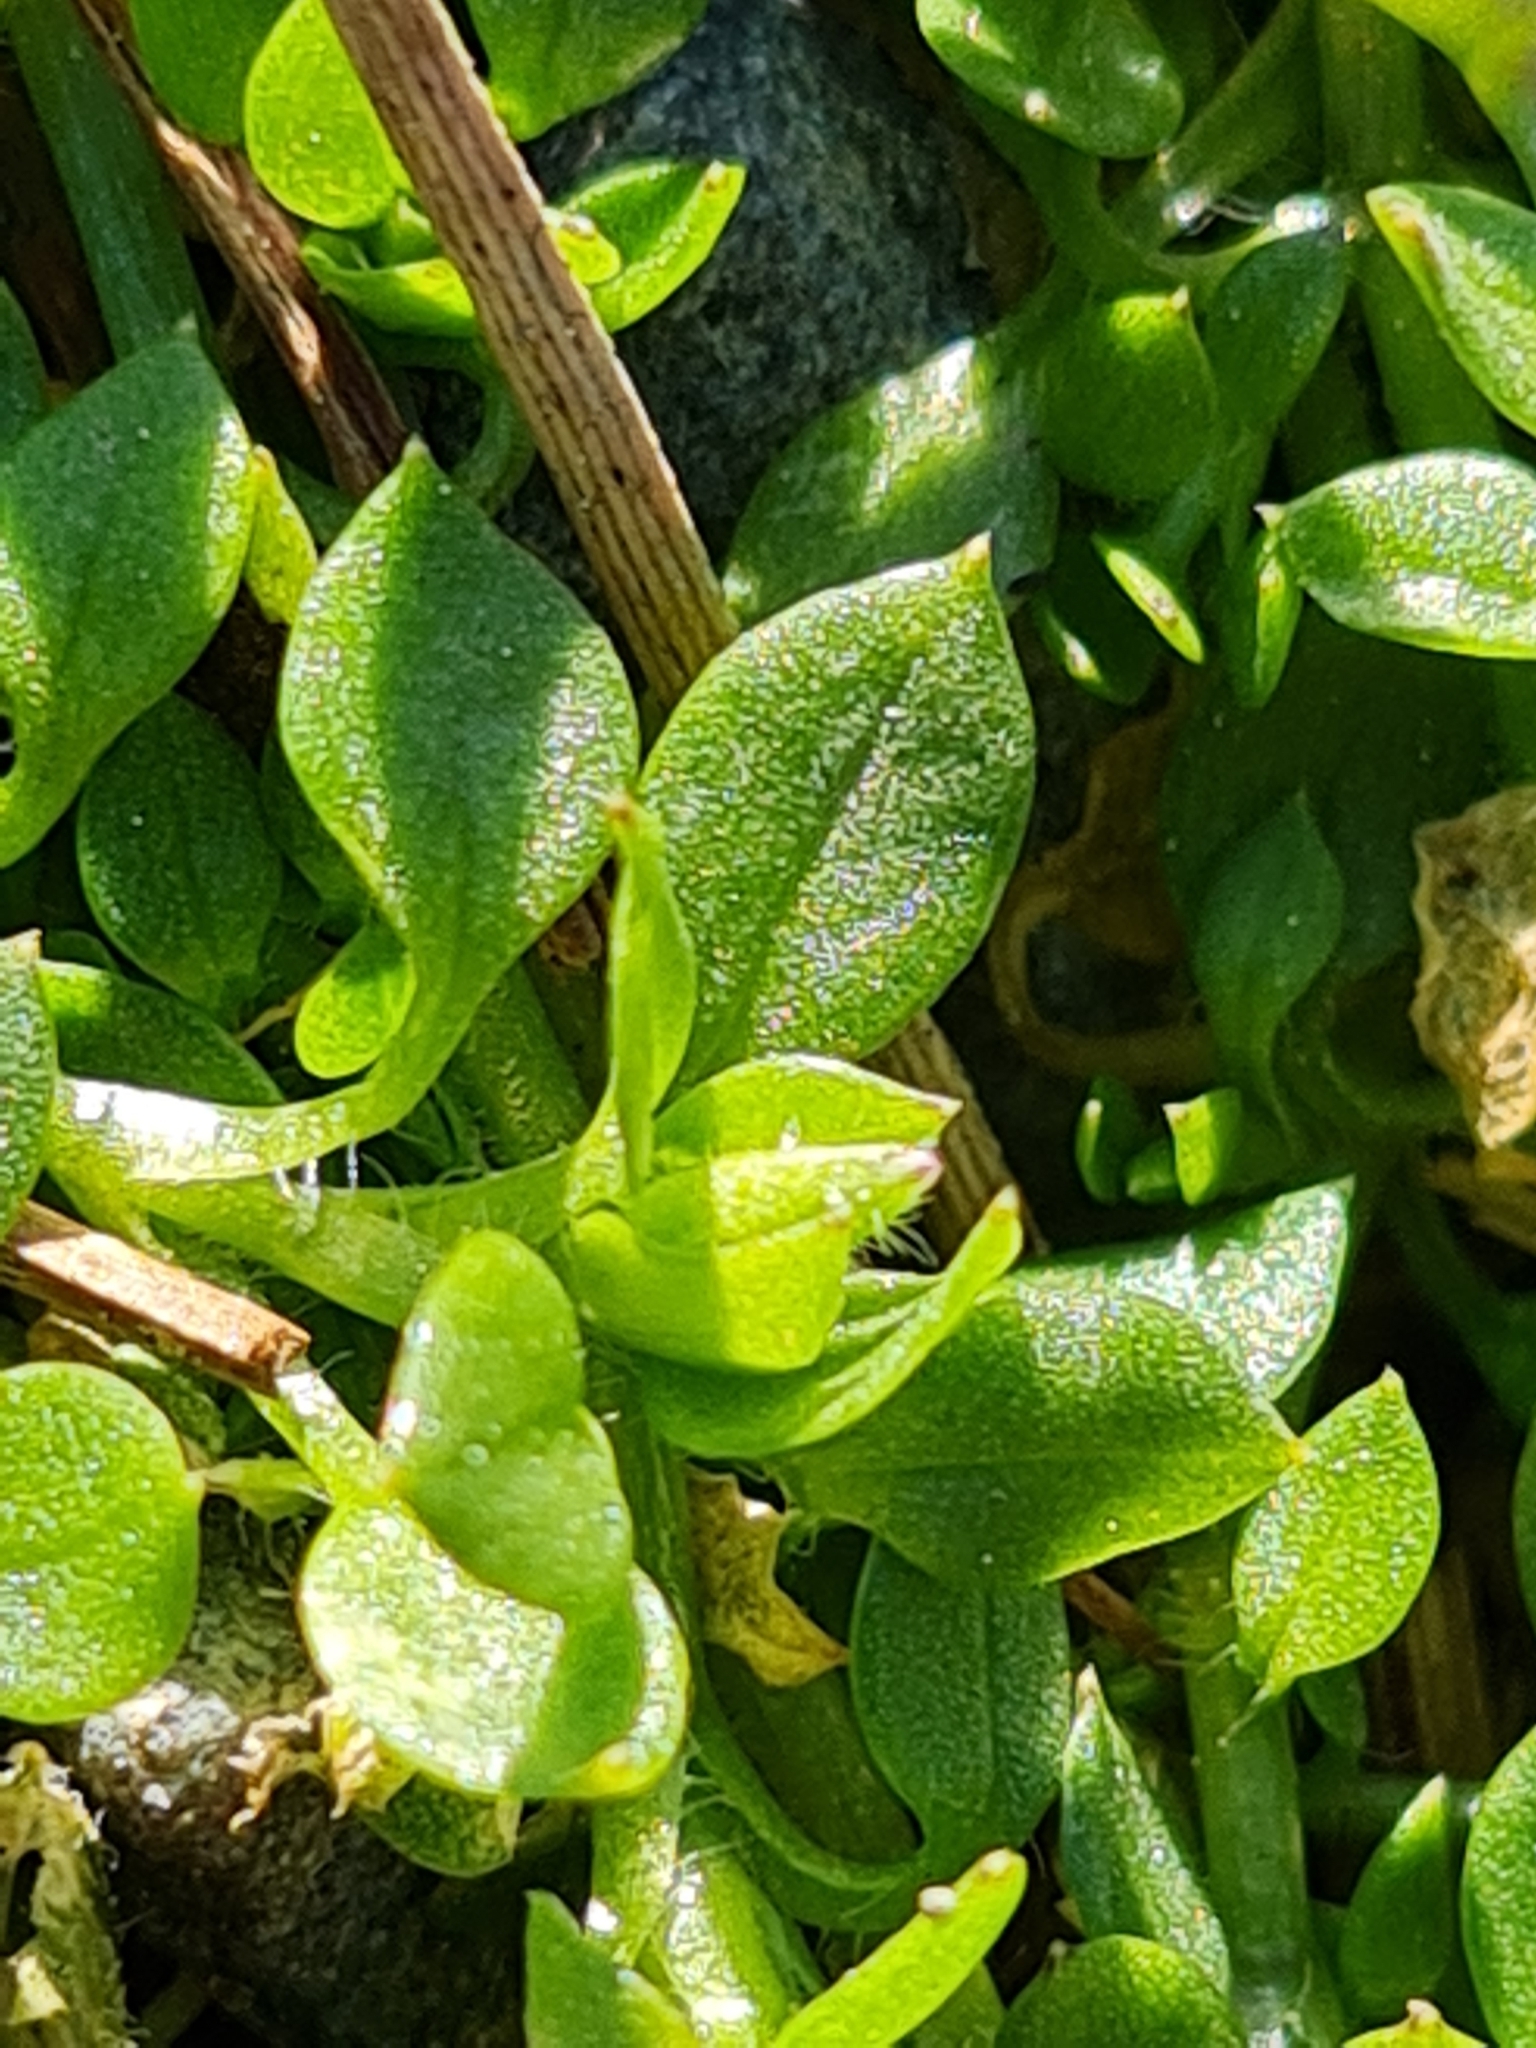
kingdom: Plantae
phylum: Tracheophyta
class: Magnoliopsida
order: Caryophyllales
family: Caryophyllaceae
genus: Stellaria
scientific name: Stellaria media
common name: Common chickweed
